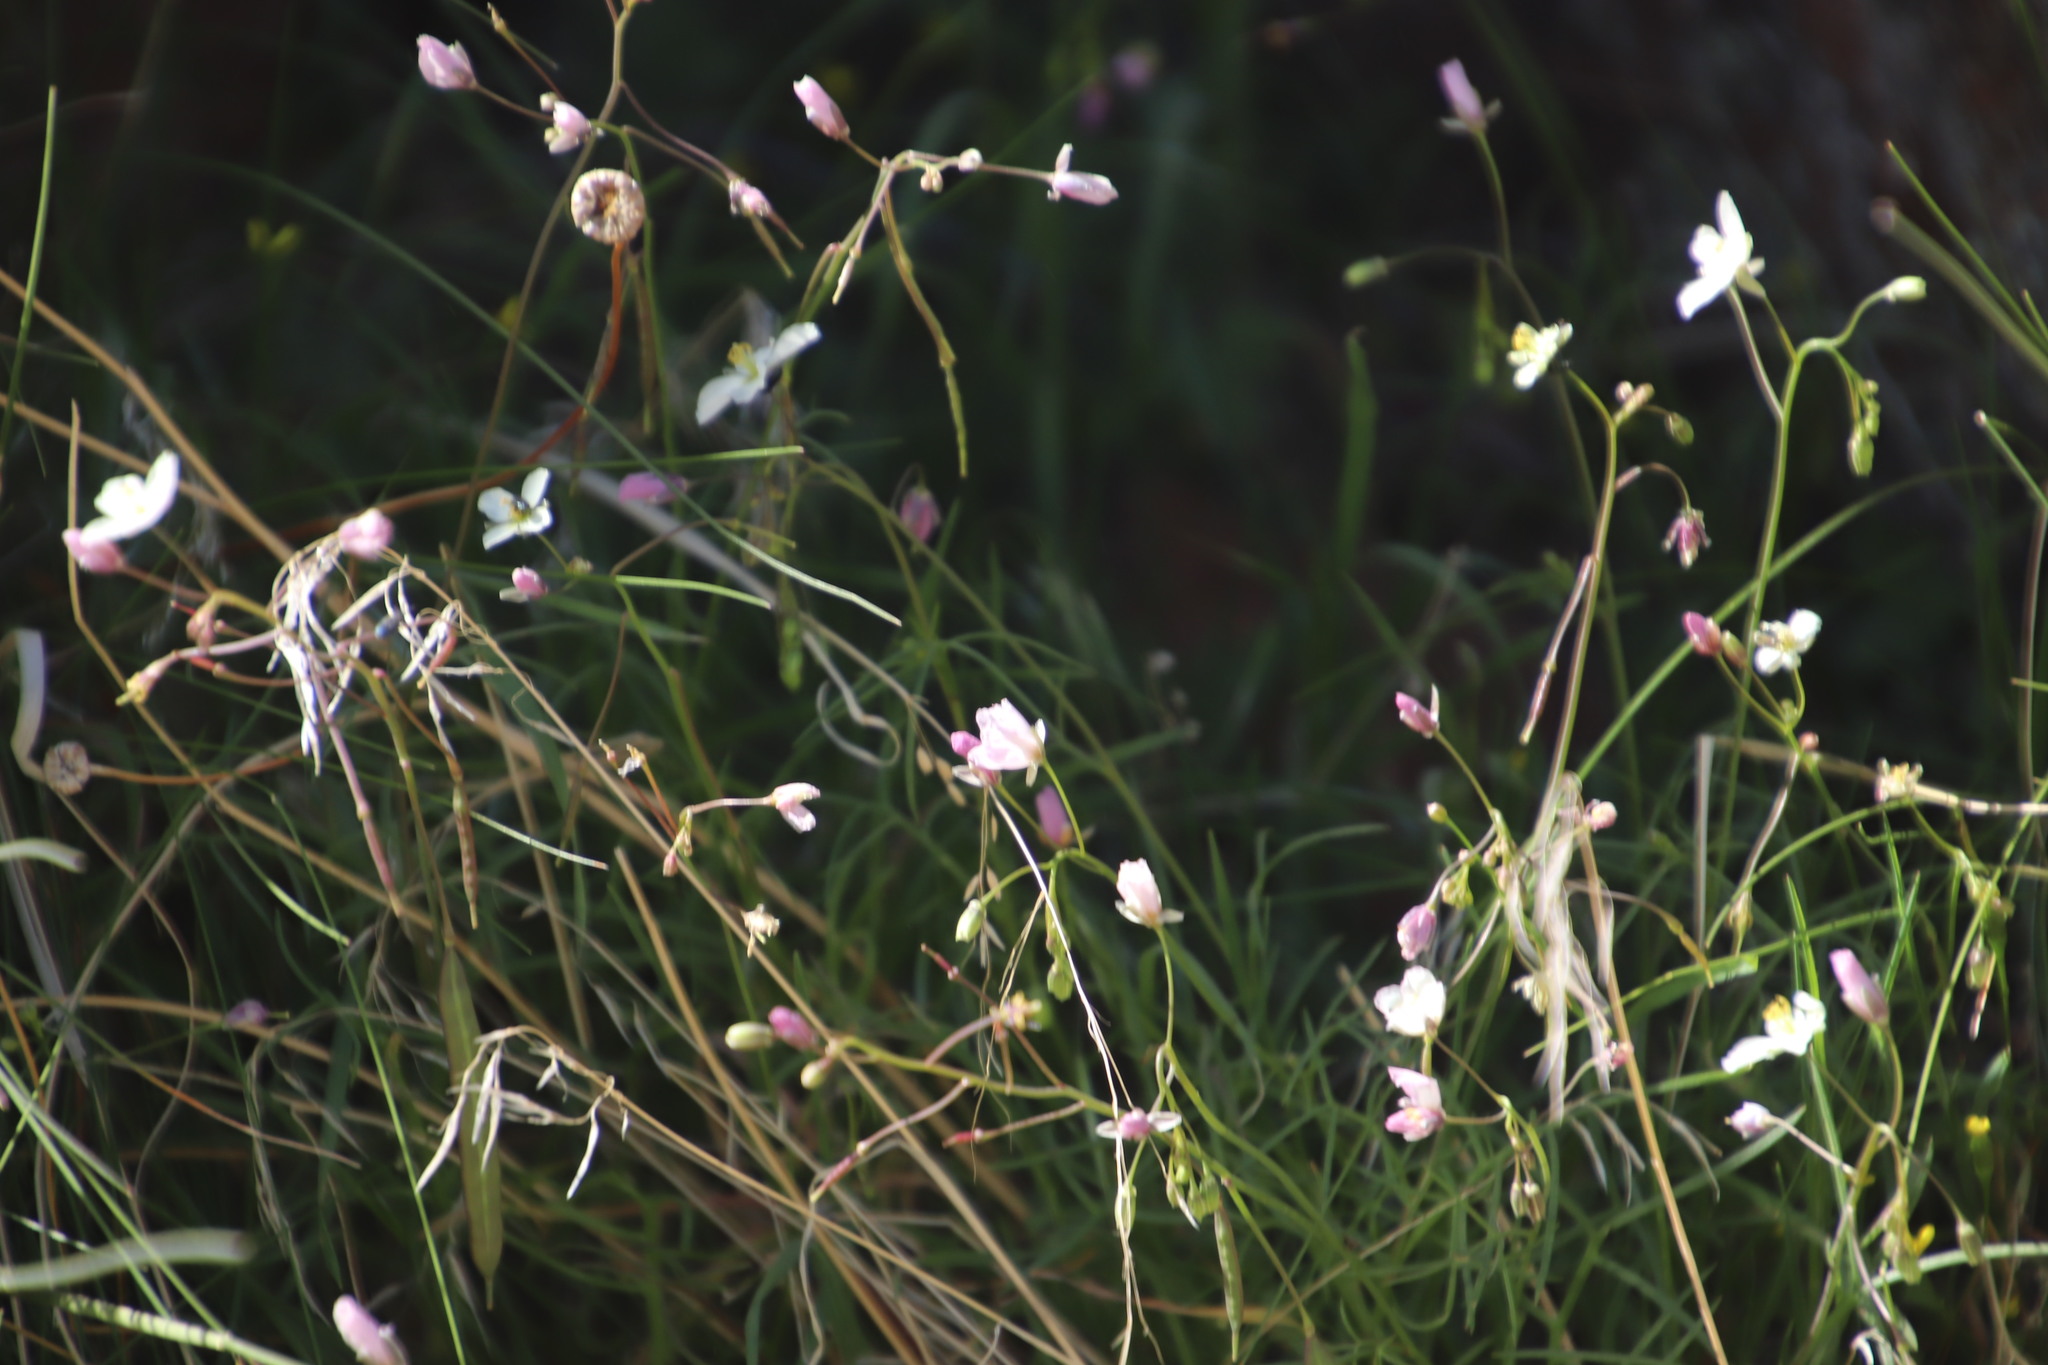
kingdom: Plantae
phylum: Tracheophyta
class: Magnoliopsida
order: Brassicales
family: Brassicaceae
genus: Heliophila
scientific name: Heliophila carnosa
